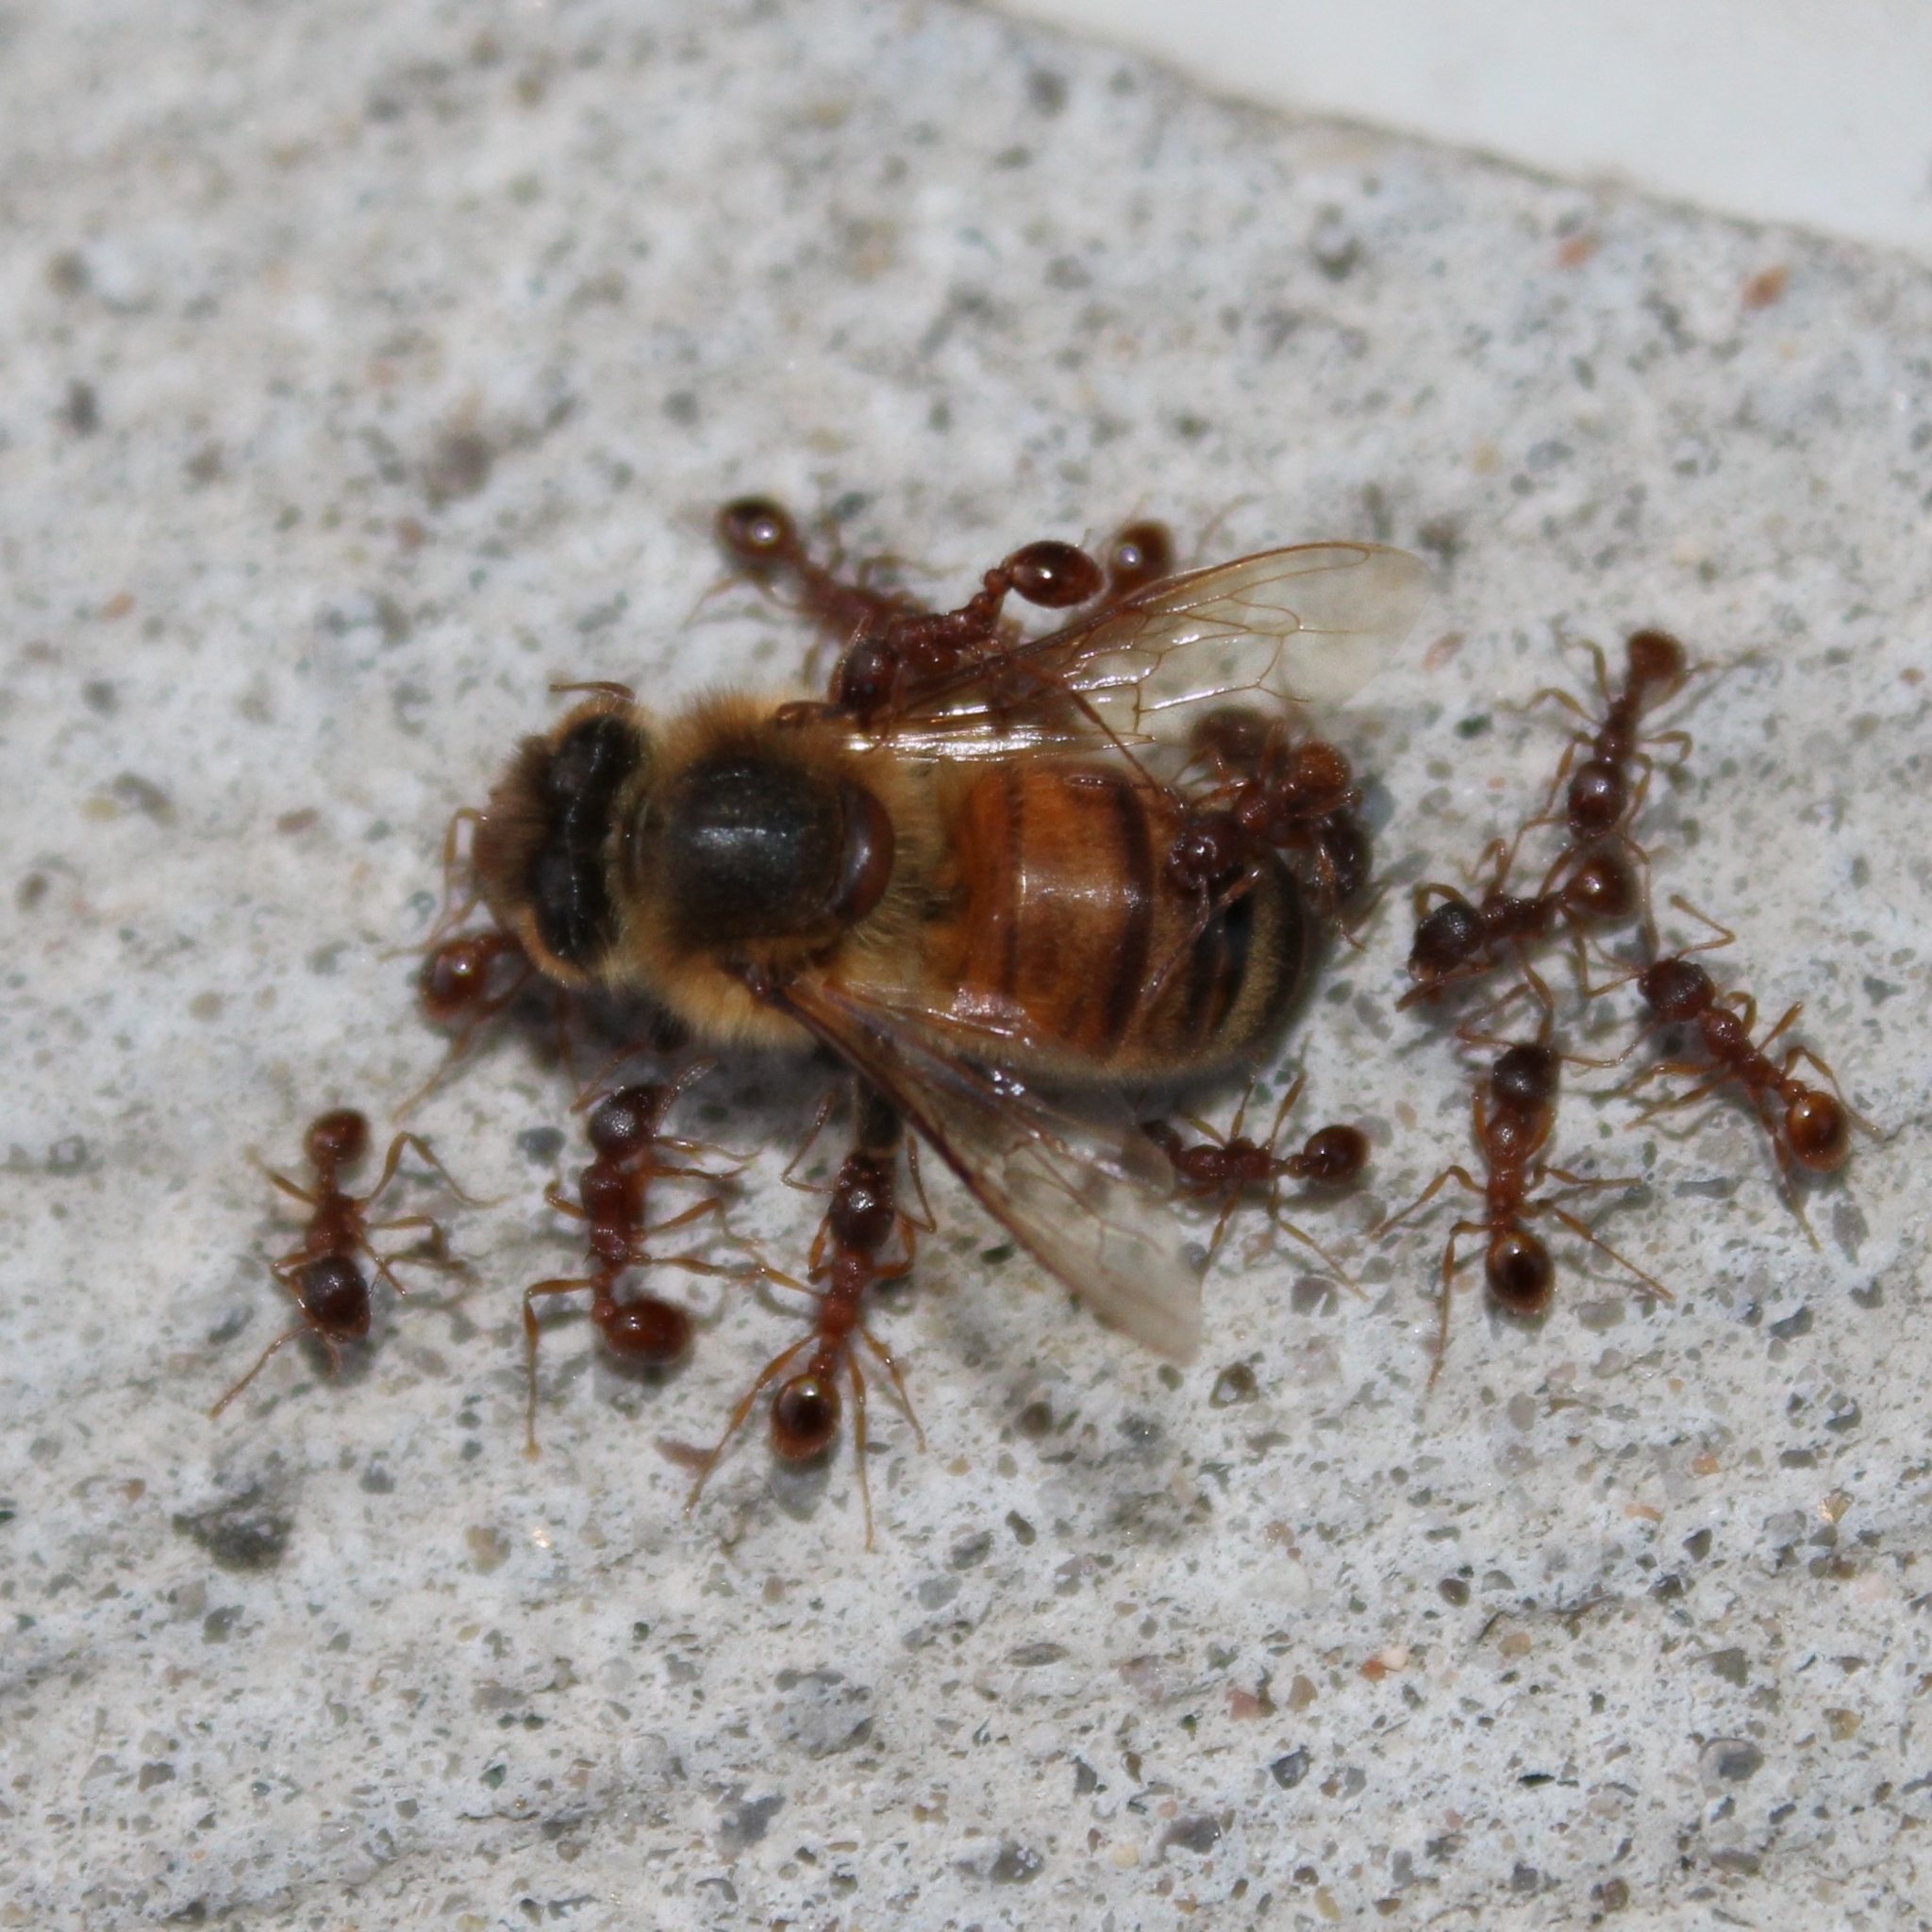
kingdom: Animalia
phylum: Arthropoda
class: Insecta
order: Hymenoptera
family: Formicidae
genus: Myrmica
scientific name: Myrmica rubra
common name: European fire ant
